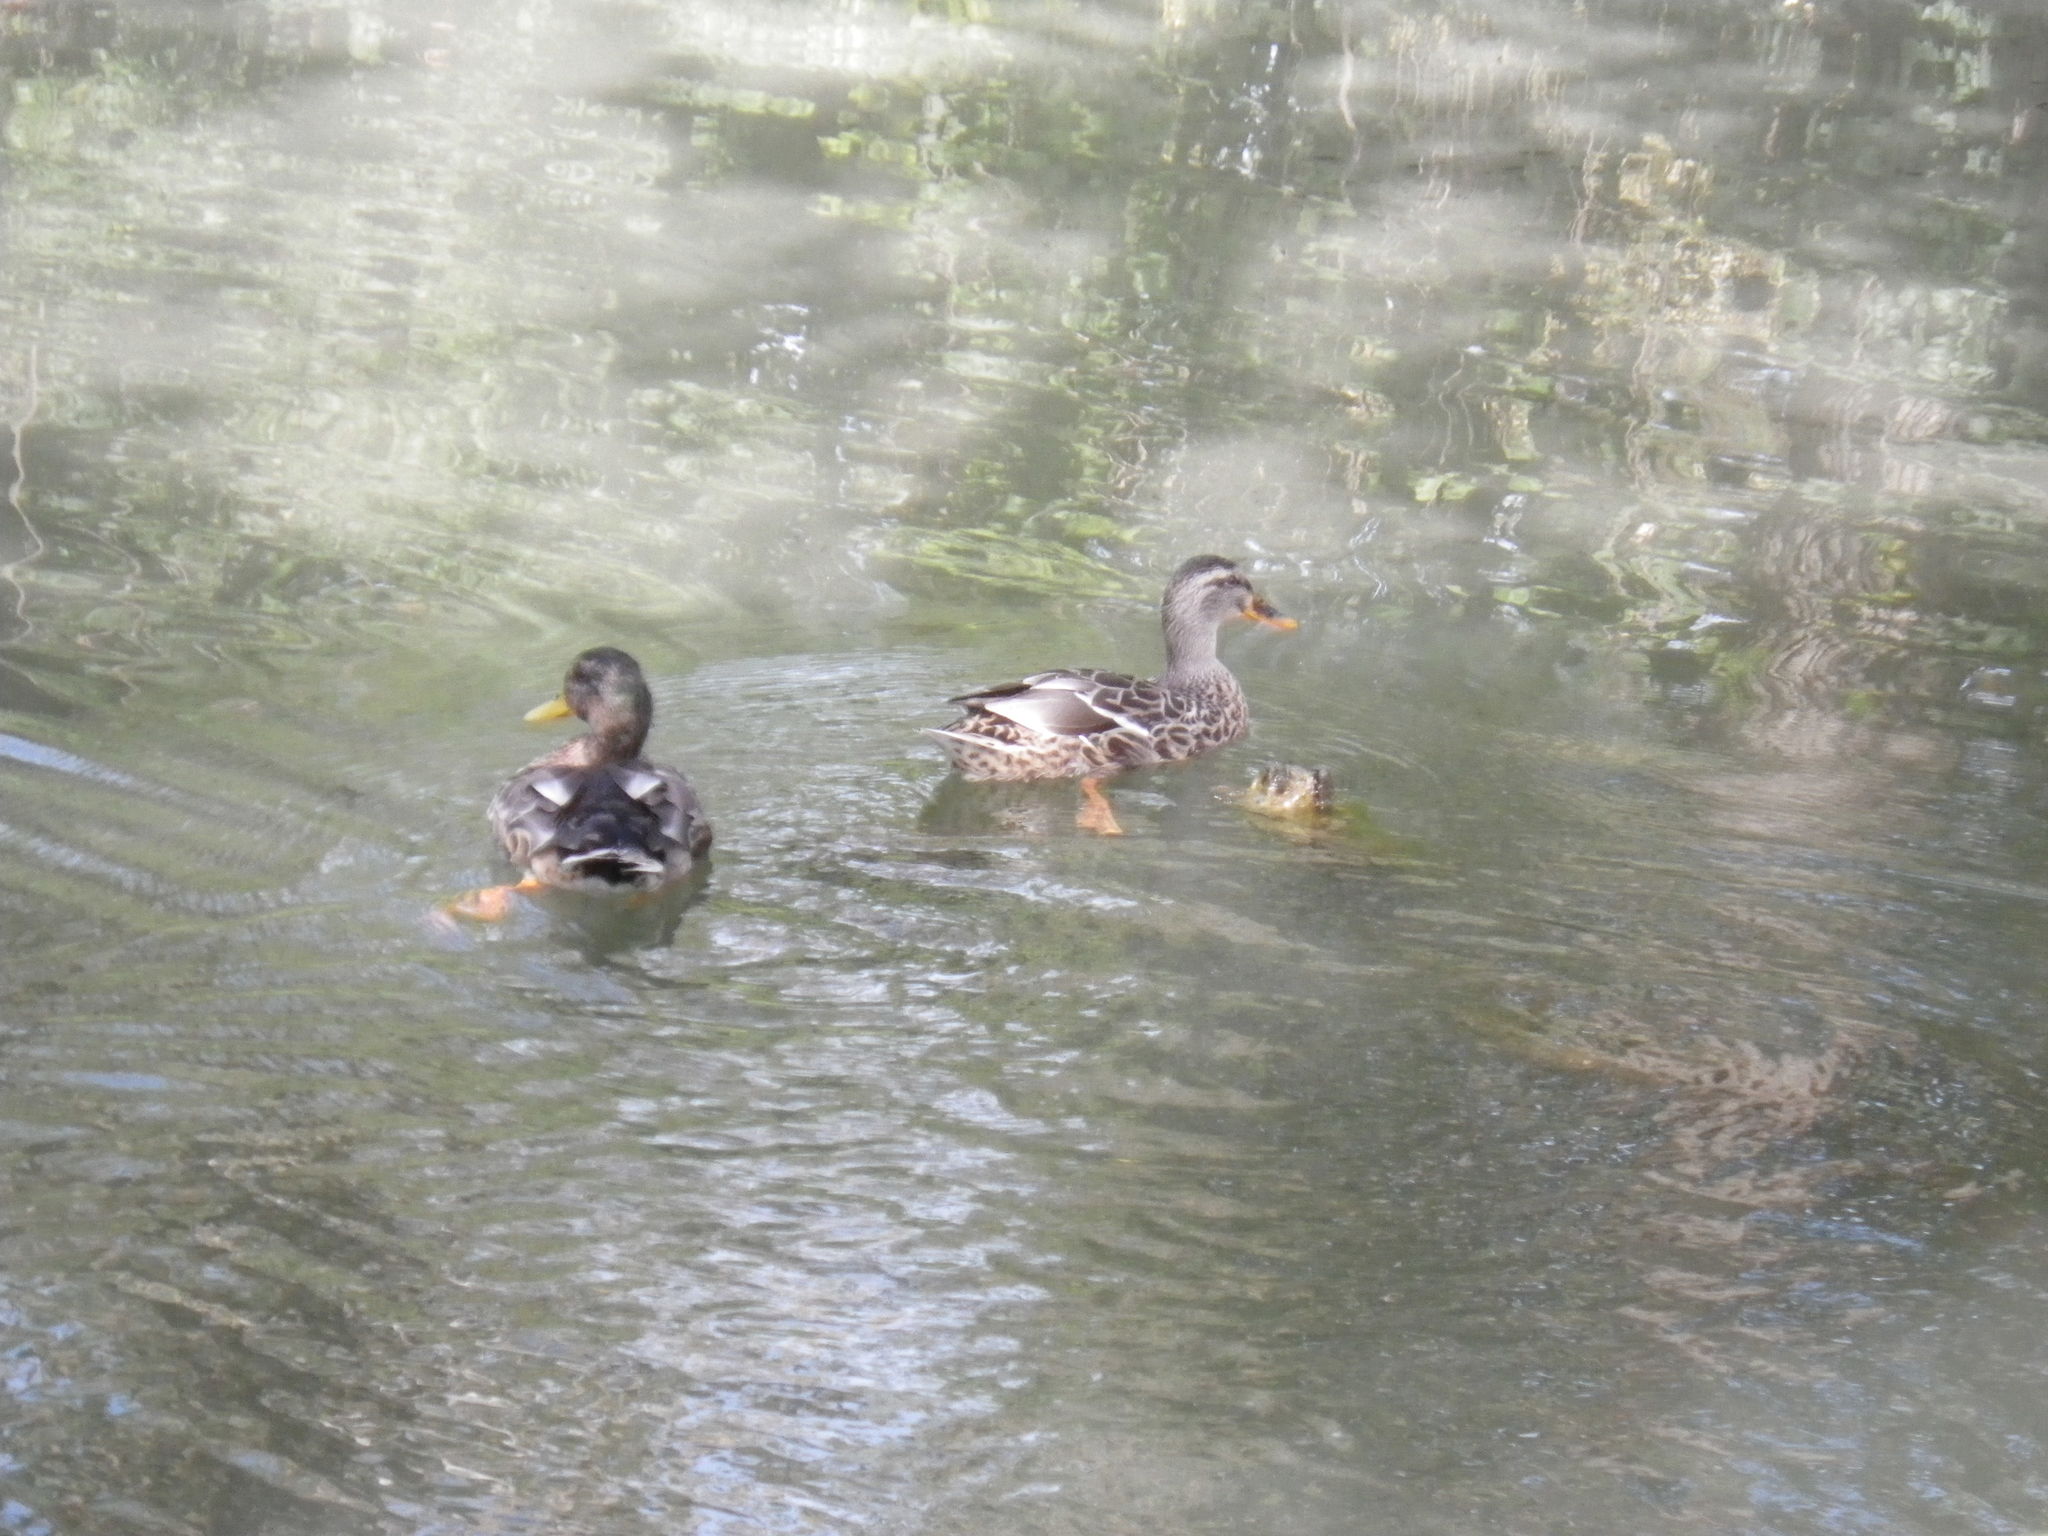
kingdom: Animalia
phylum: Chordata
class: Aves
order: Anseriformes
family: Anatidae
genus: Anas
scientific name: Anas platyrhynchos
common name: Mallard
